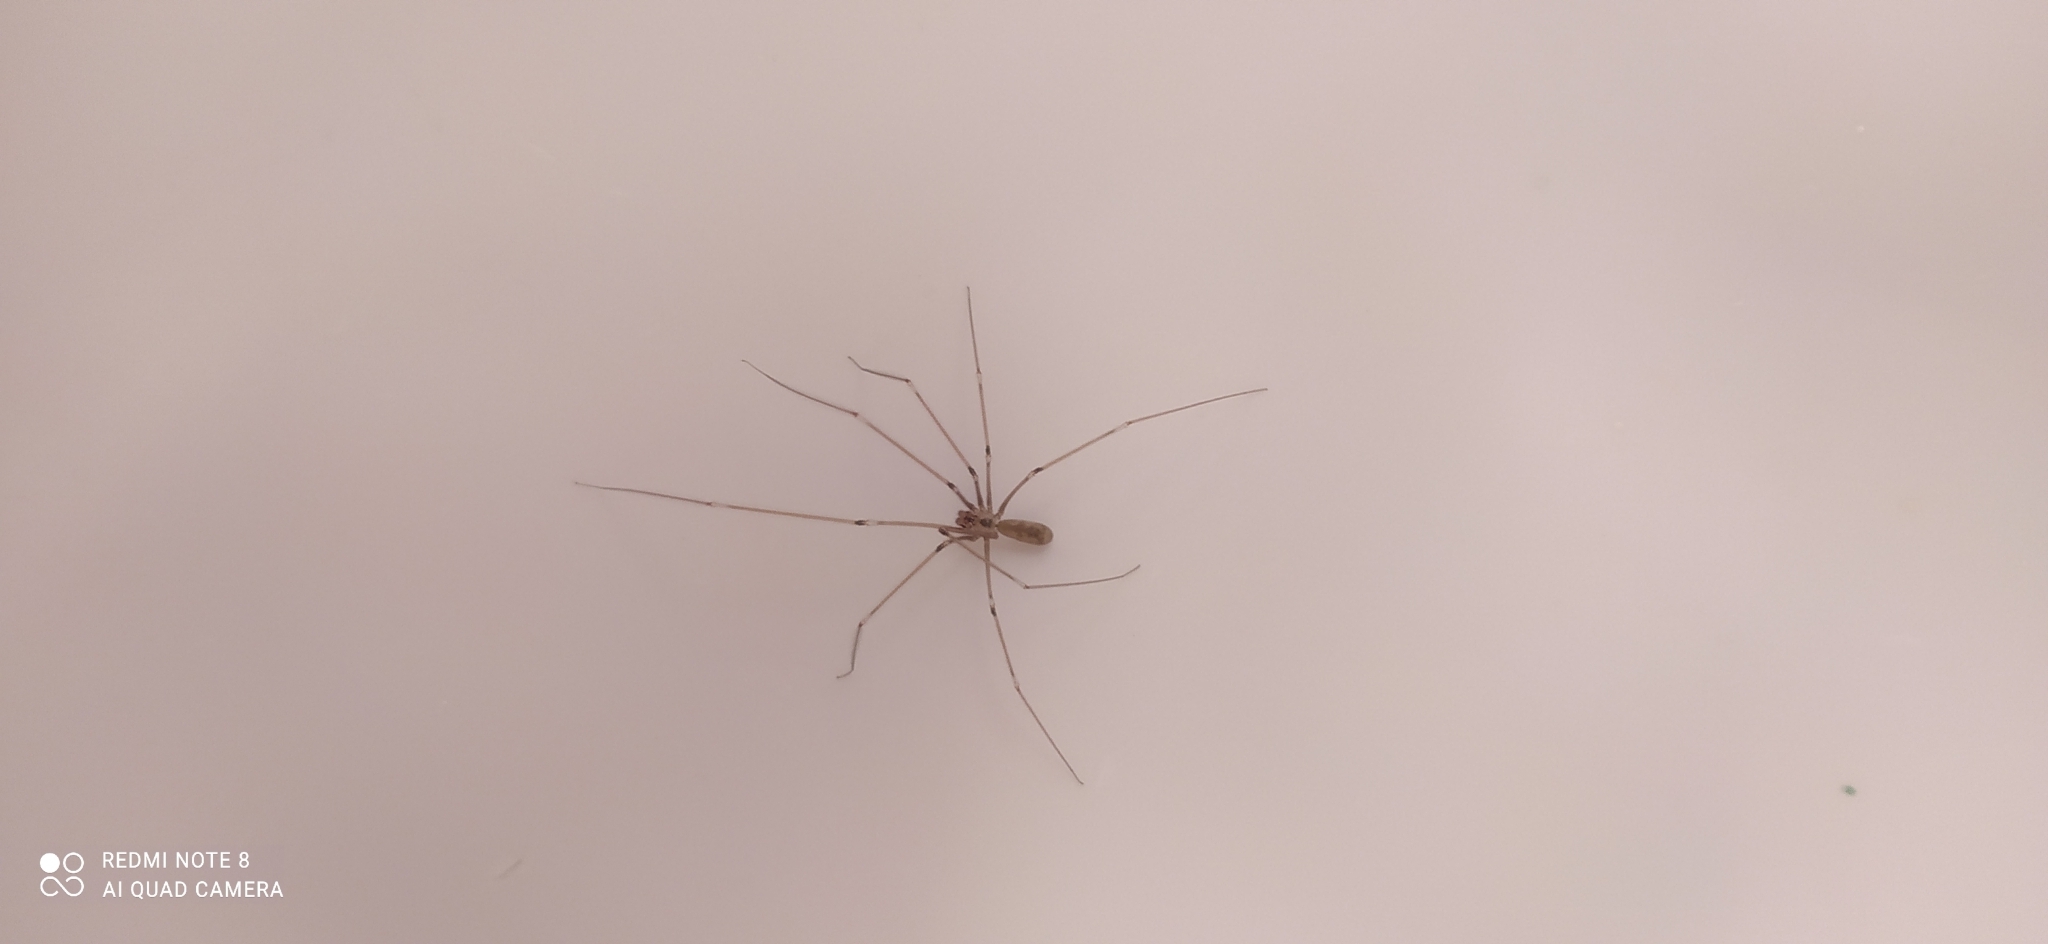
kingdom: Animalia
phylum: Arthropoda
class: Arachnida
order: Araneae
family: Pholcidae
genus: Pholcus
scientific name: Pholcus phalangioides
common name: Longbodied cellar spider
